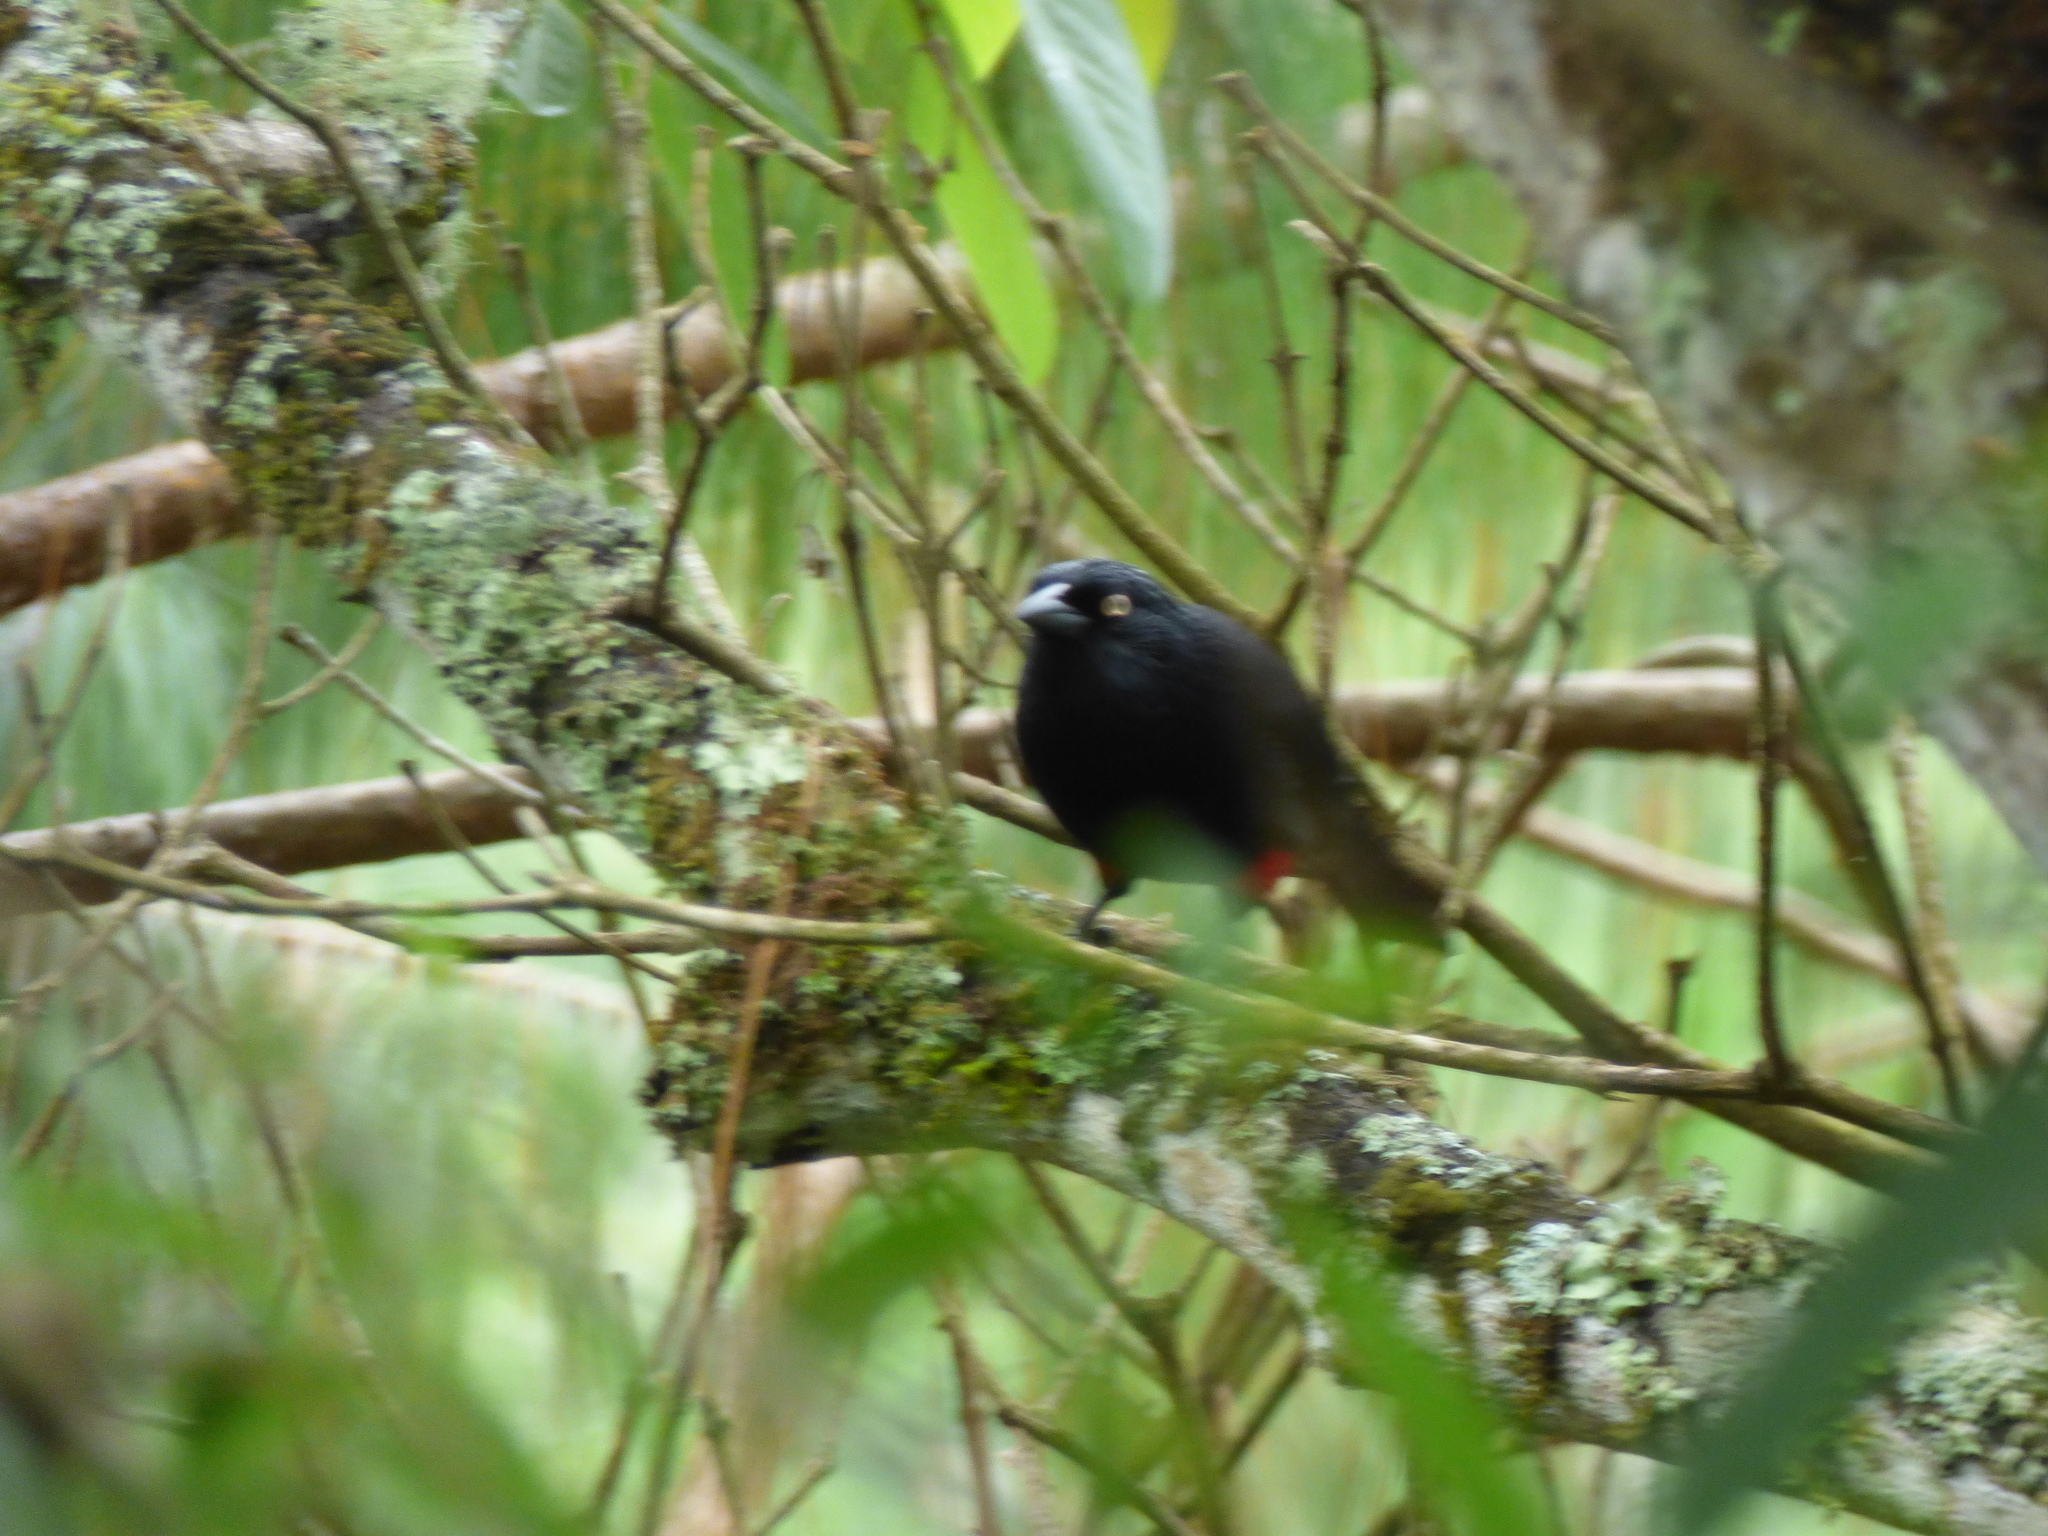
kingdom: Animalia
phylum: Chordata
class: Aves
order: Passeriformes
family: Icteridae
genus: Hypopyrrhus
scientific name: Hypopyrrhus pyrohypogaster
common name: Red-bellied grackle
